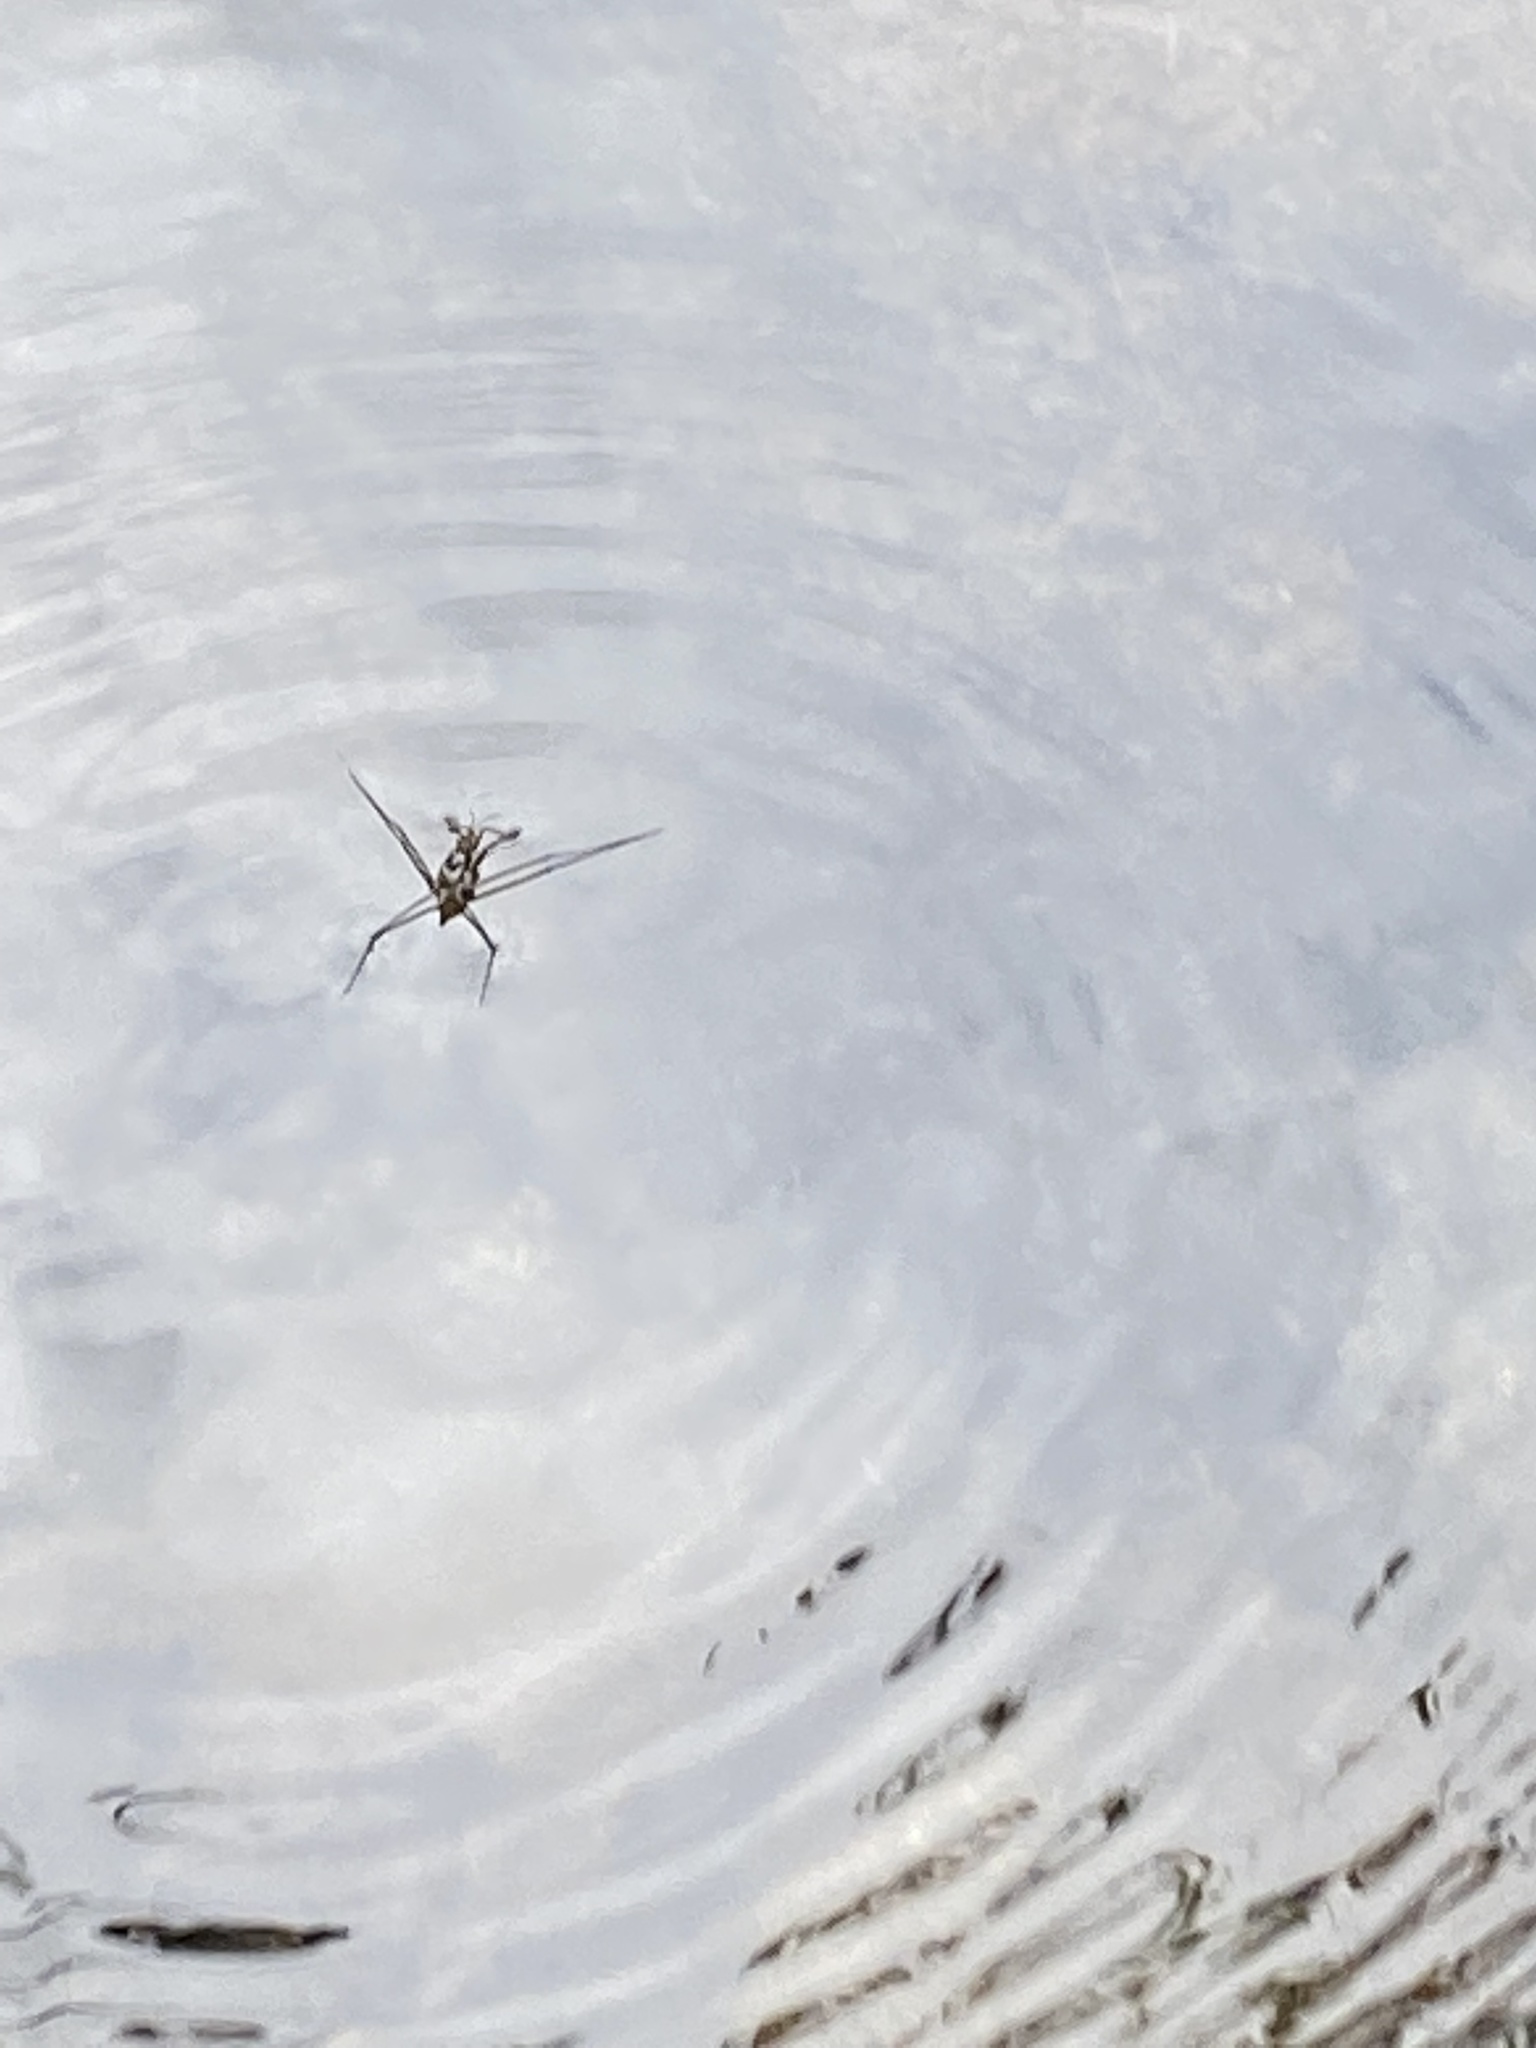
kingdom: Animalia
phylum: Arthropoda
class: Insecta
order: Hemiptera
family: Gerridae
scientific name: Gerridae
